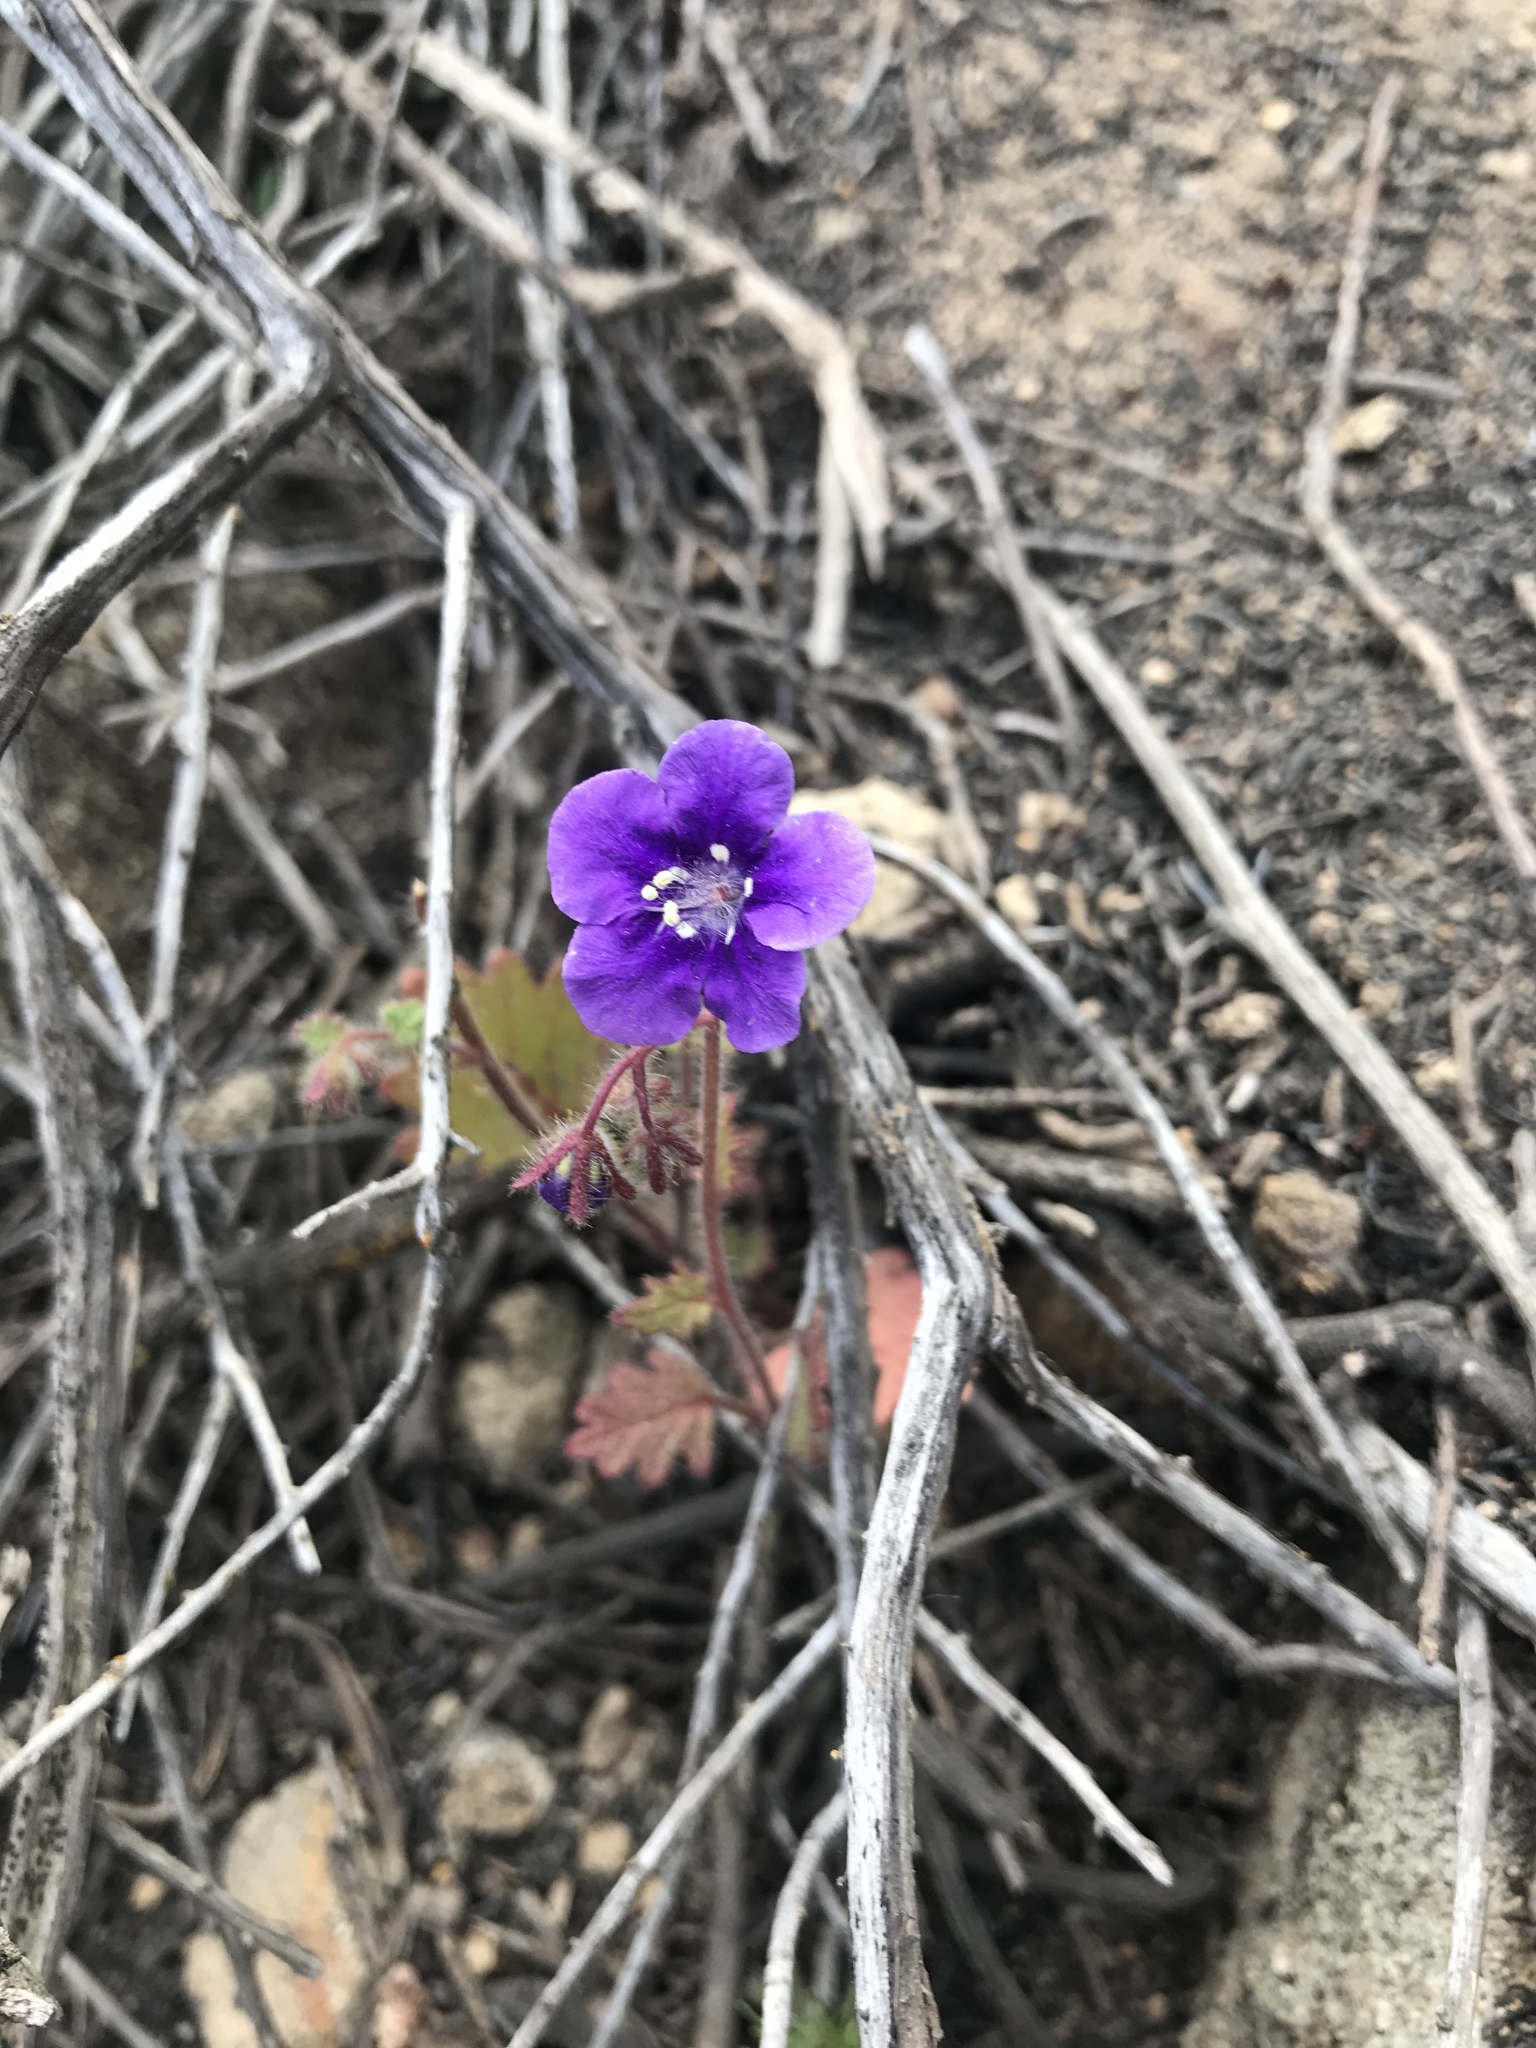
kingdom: Plantae
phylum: Tracheophyta
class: Magnoliopsida
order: Boraginales
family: Hydrophyllaceae
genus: Phacelia
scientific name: Phacelia parryi
